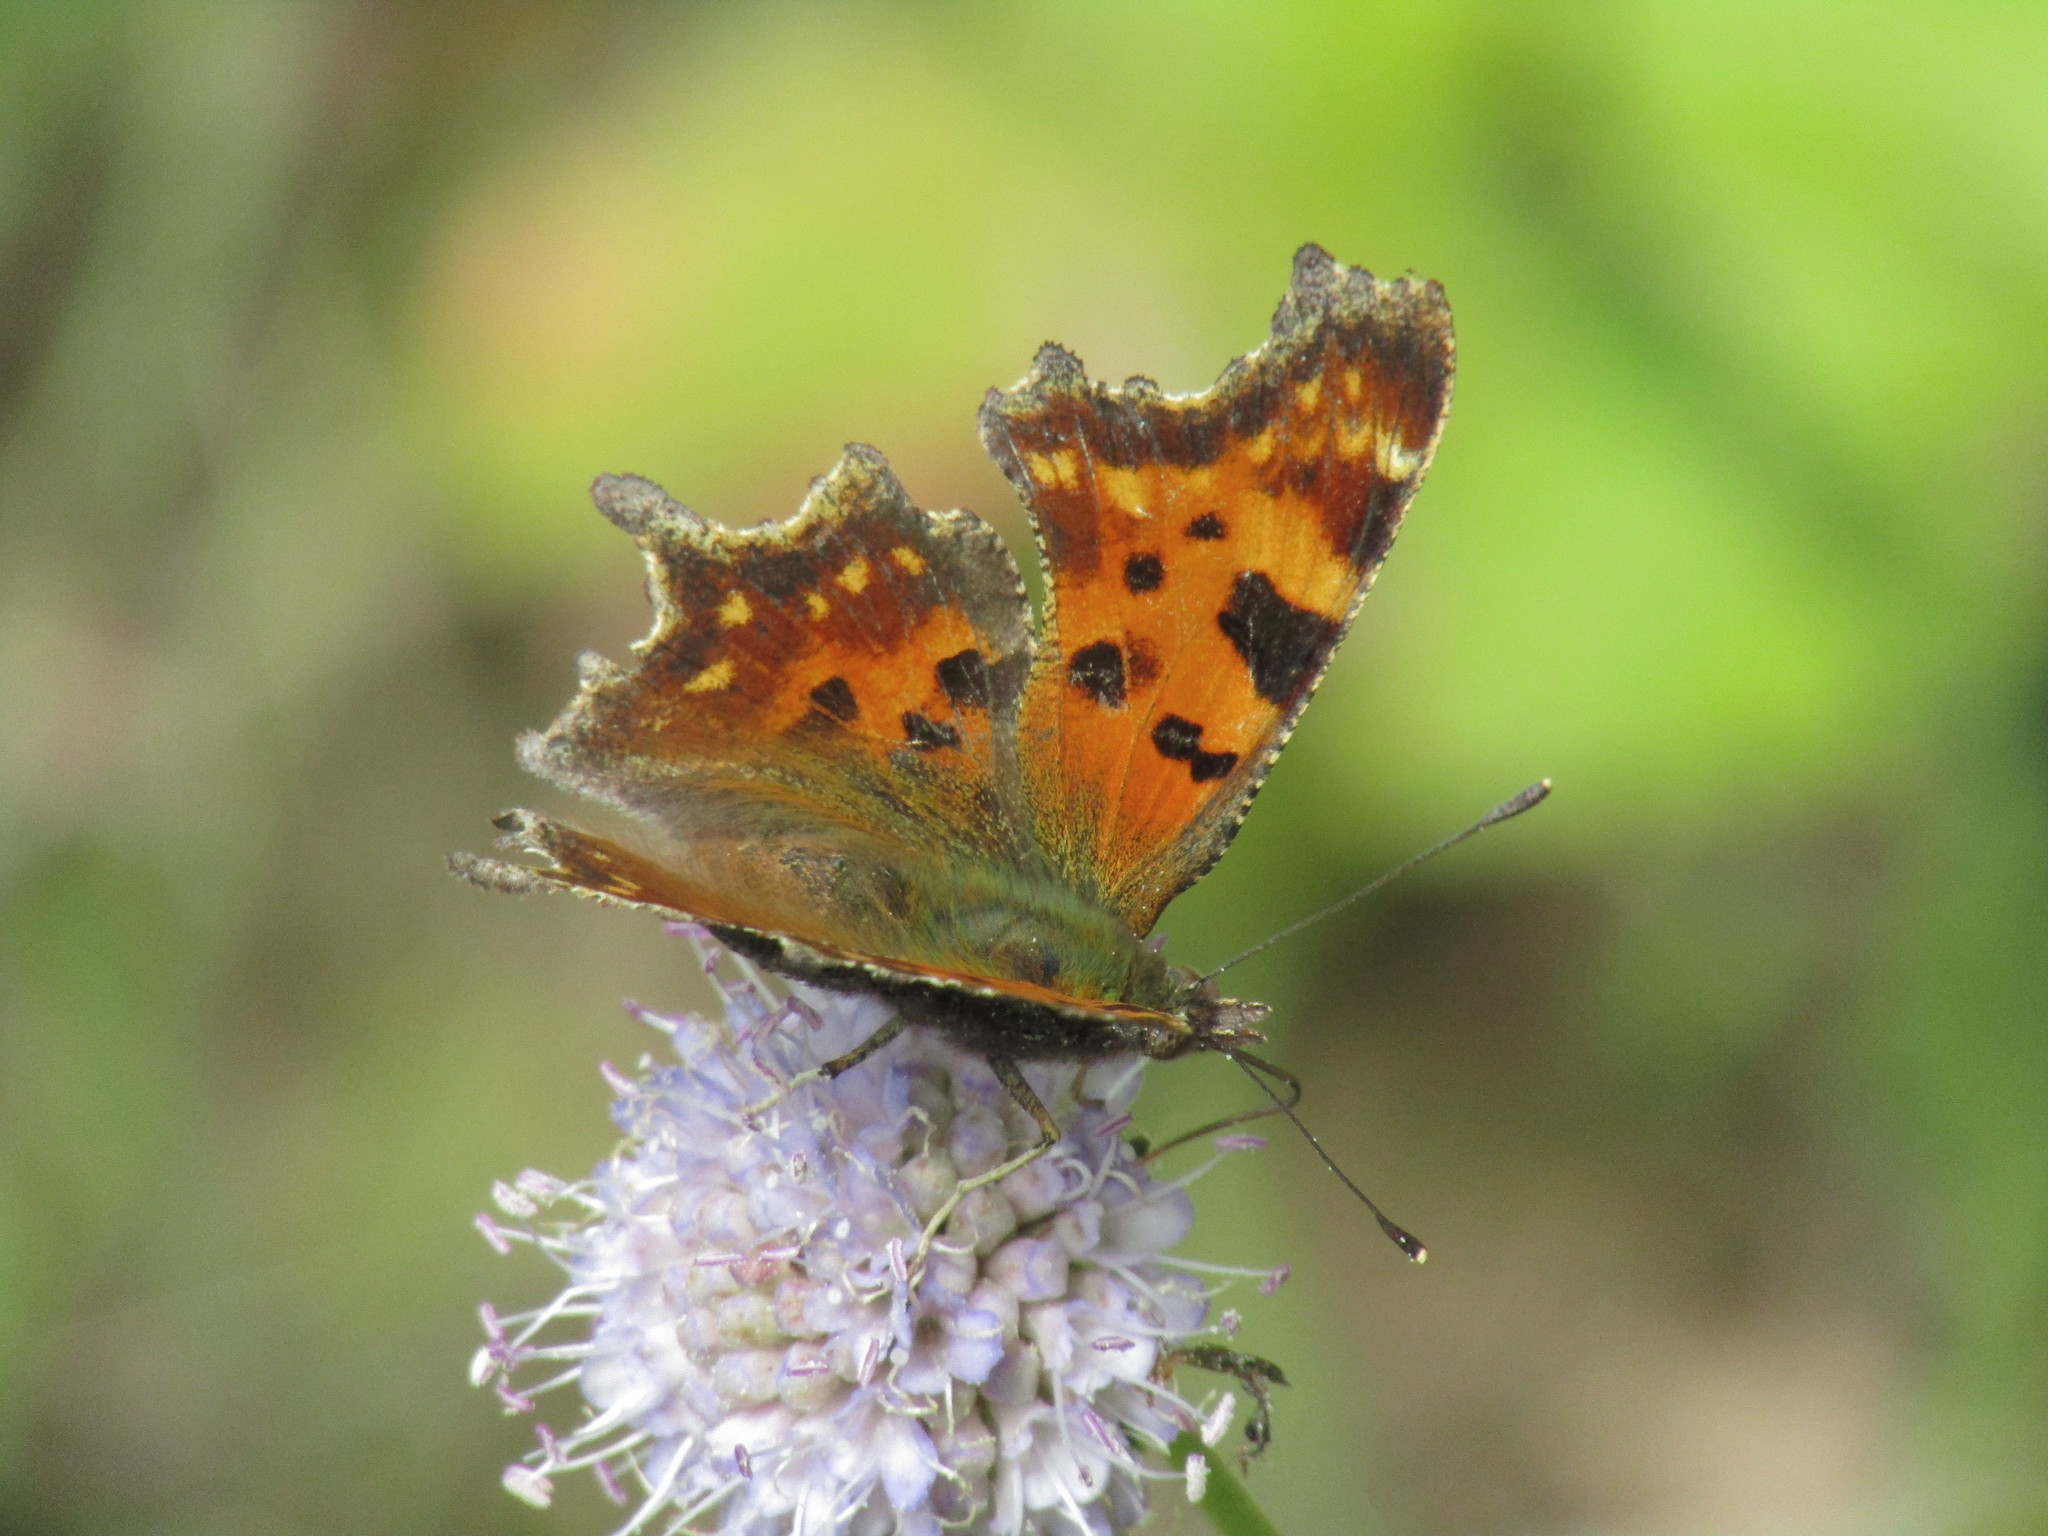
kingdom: Animalia
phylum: Arthropoda
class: Insecta
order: Lepidoptera
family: Nymphalidae
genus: Polygonia
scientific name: Polygonia c-album
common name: Comma
